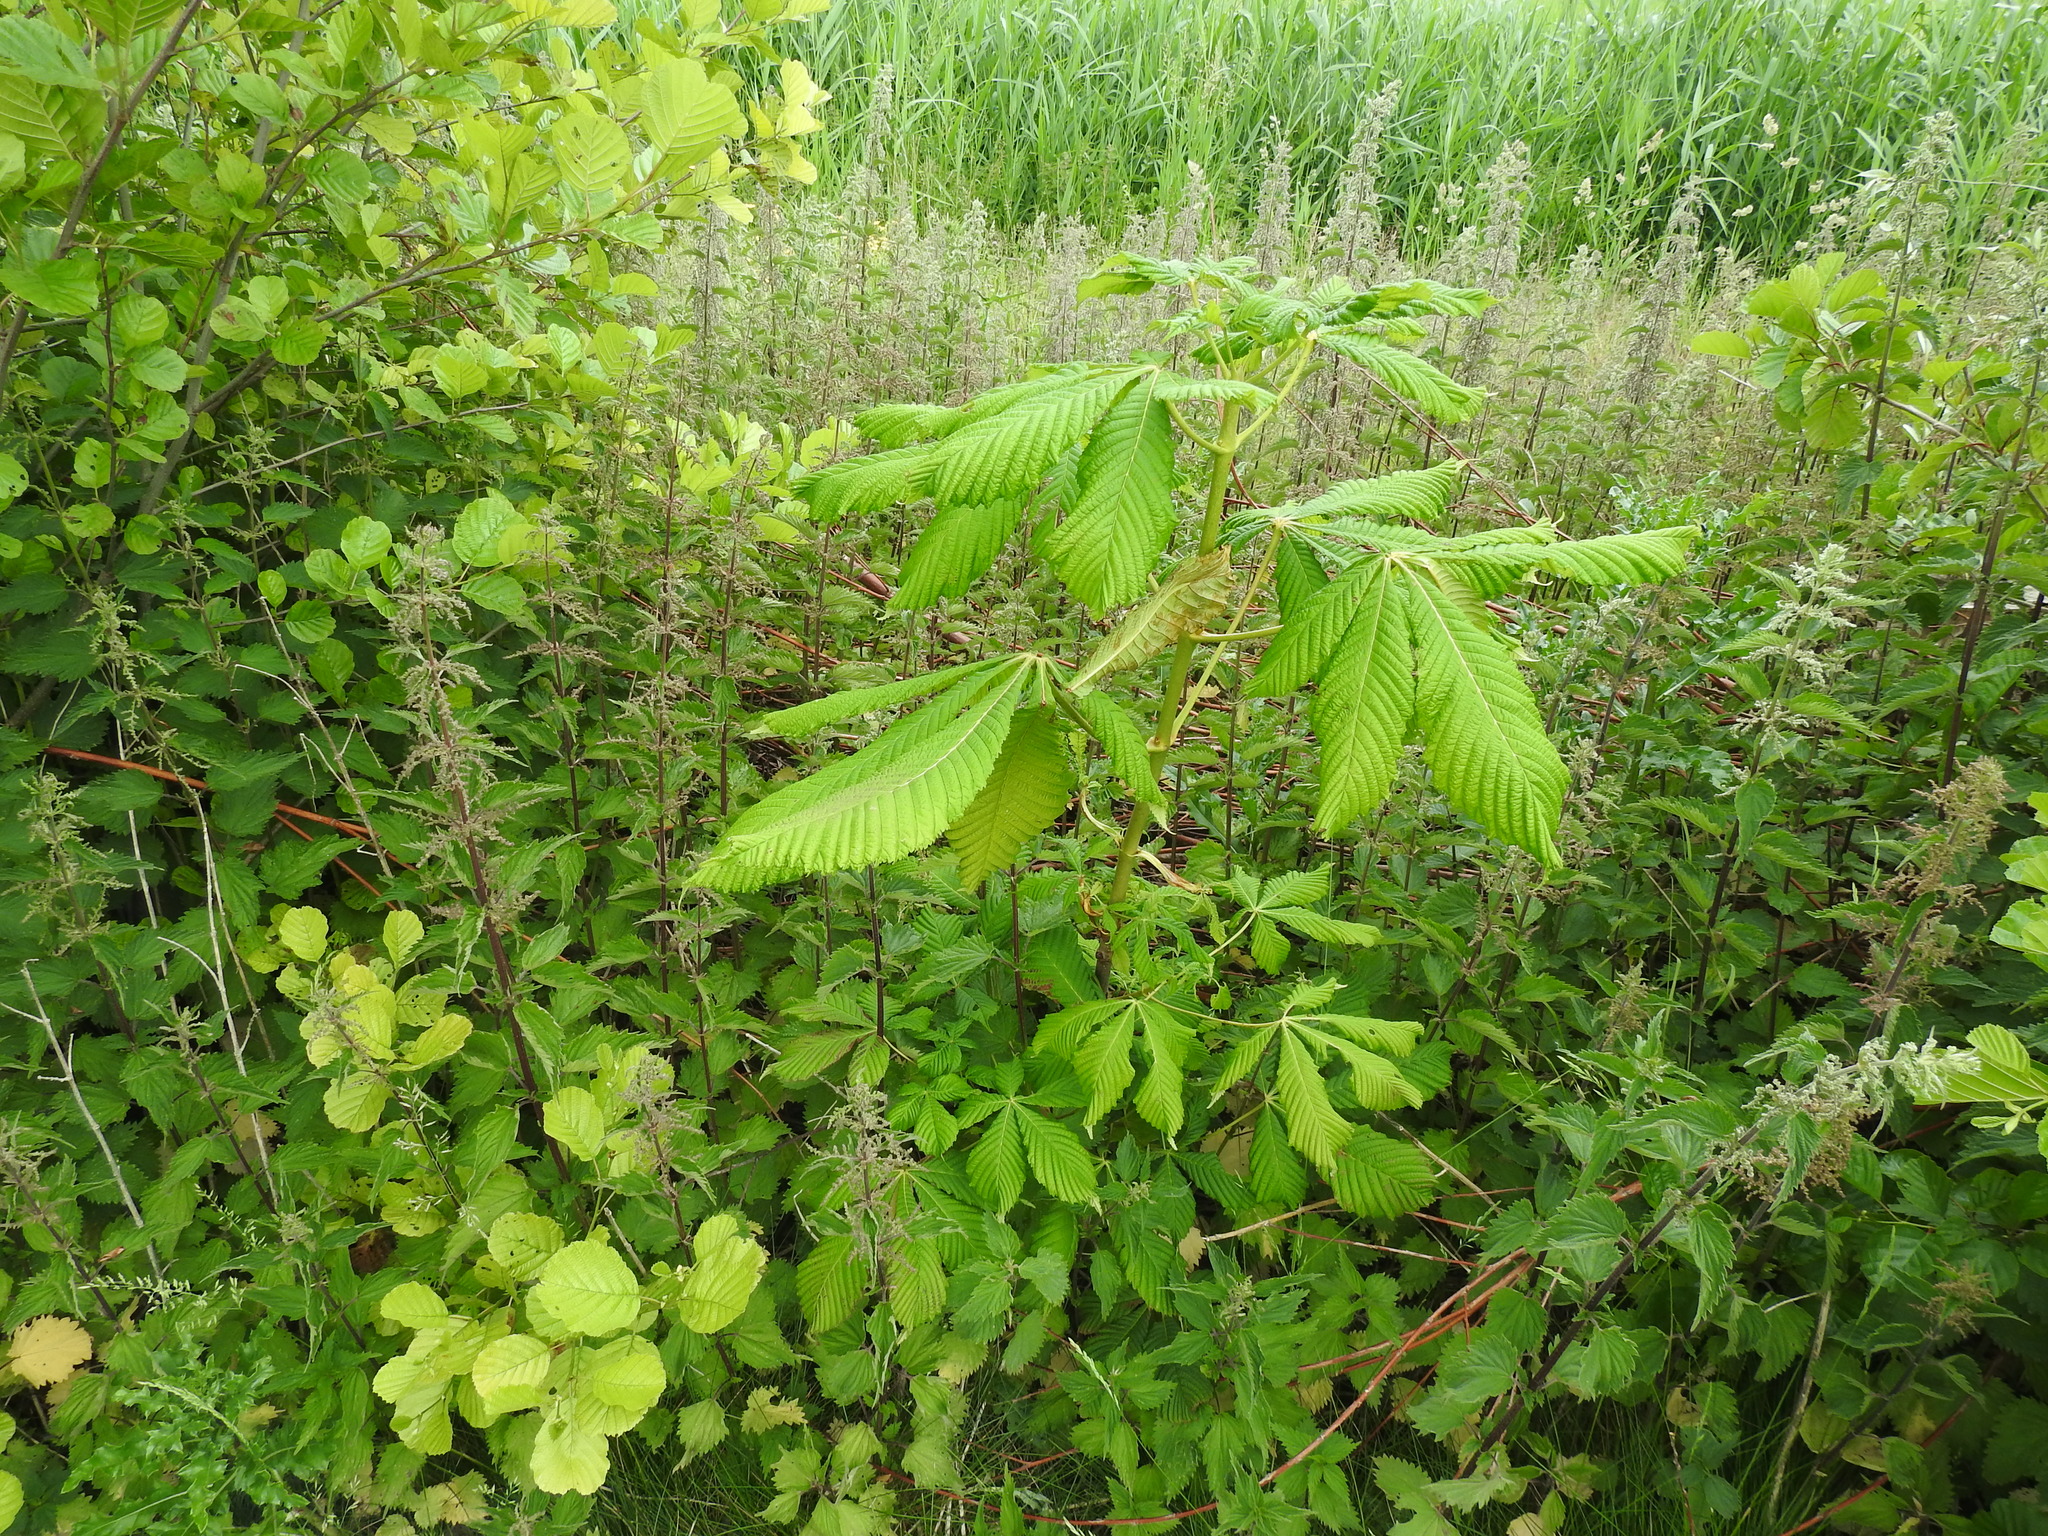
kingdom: Plantae
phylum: Tracheophyta
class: Magnoliopsida
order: Sapindales
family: Sapindaceae
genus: Aesculus
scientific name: Aesculus hippocastanum
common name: Horse-chestnut
